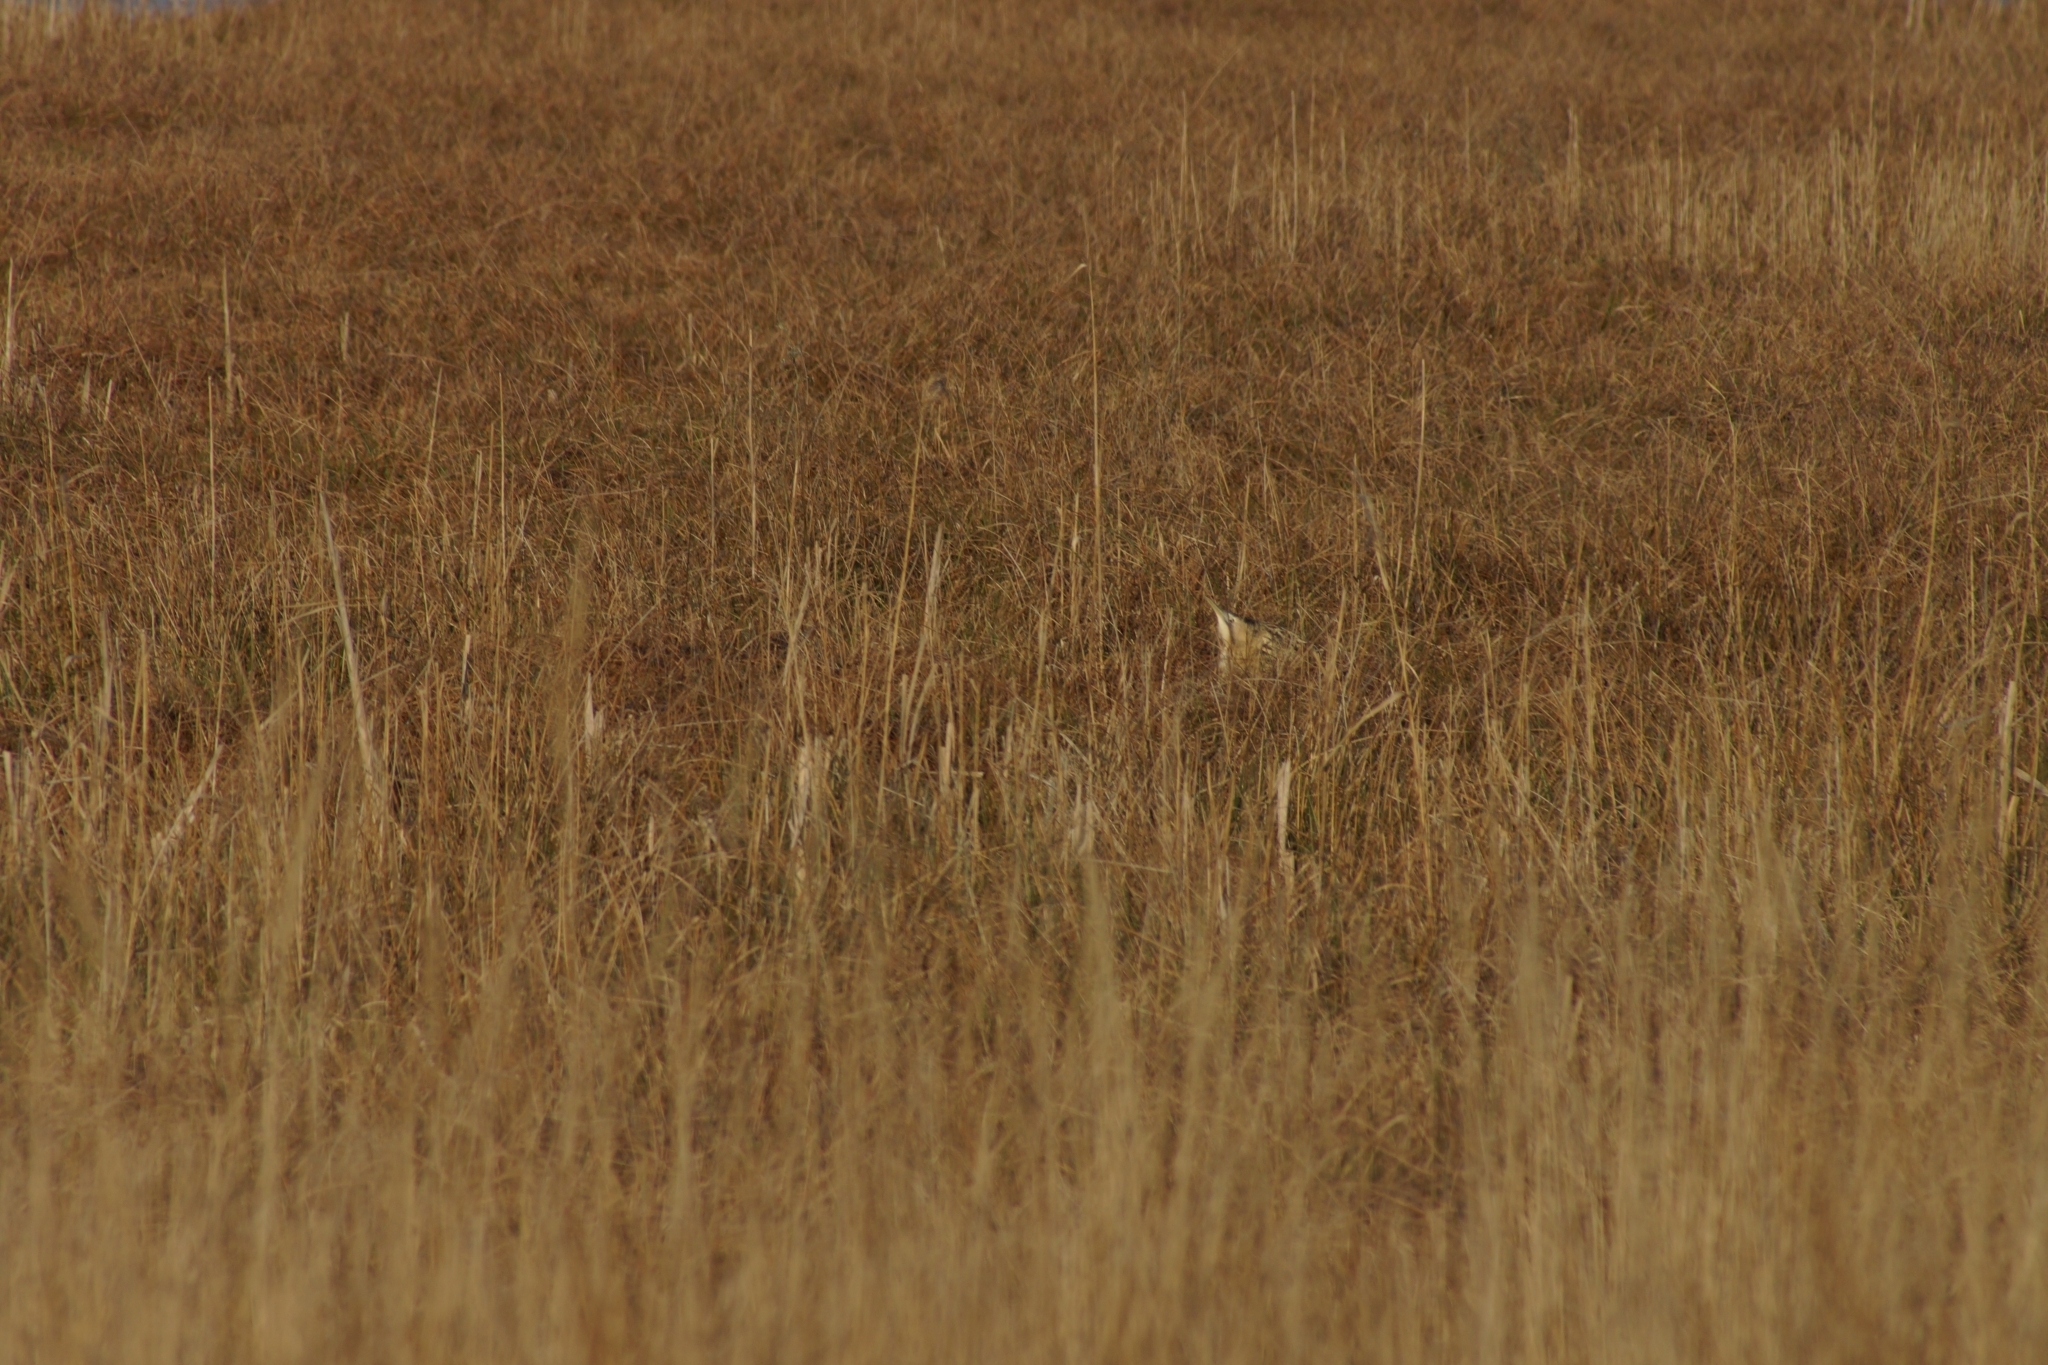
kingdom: Animalia
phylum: Chordata
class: Aves
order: Pelecaniformes
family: Ardeidae
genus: Botaurus
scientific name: Botaurus stellaris
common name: Eurasian bittern
